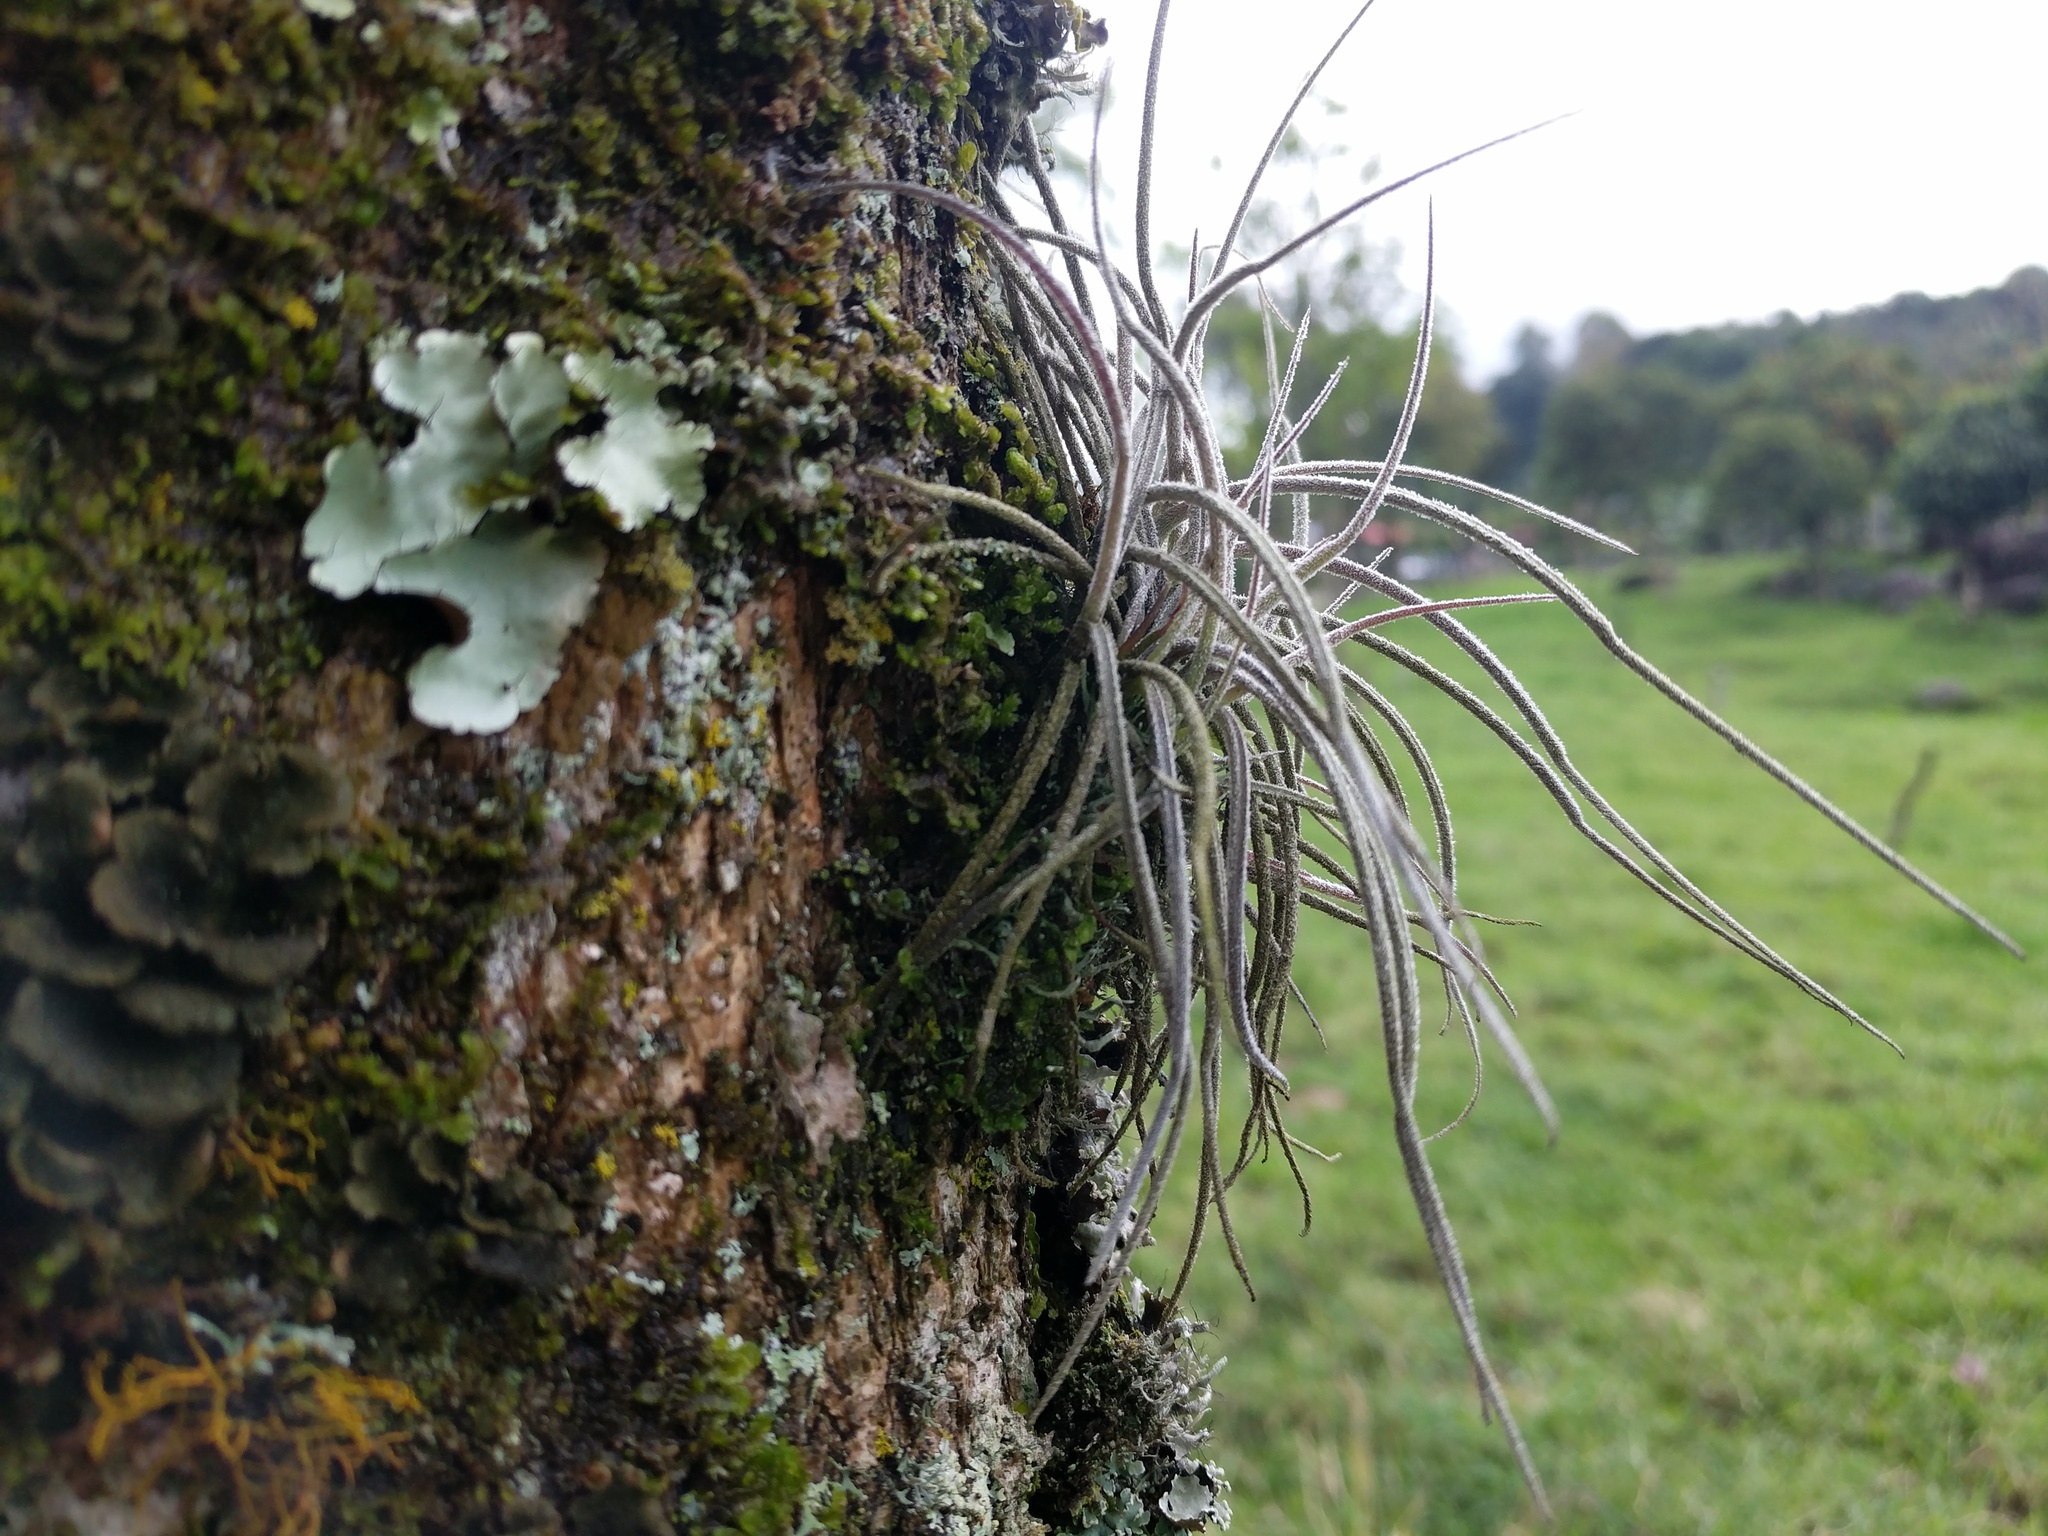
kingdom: Plantae
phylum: Tracheophyta
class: Liliopsida
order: Poales
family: Bromeliaceae
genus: Tillandsia
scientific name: Tillandsia recurvata
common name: Small ballmoss
